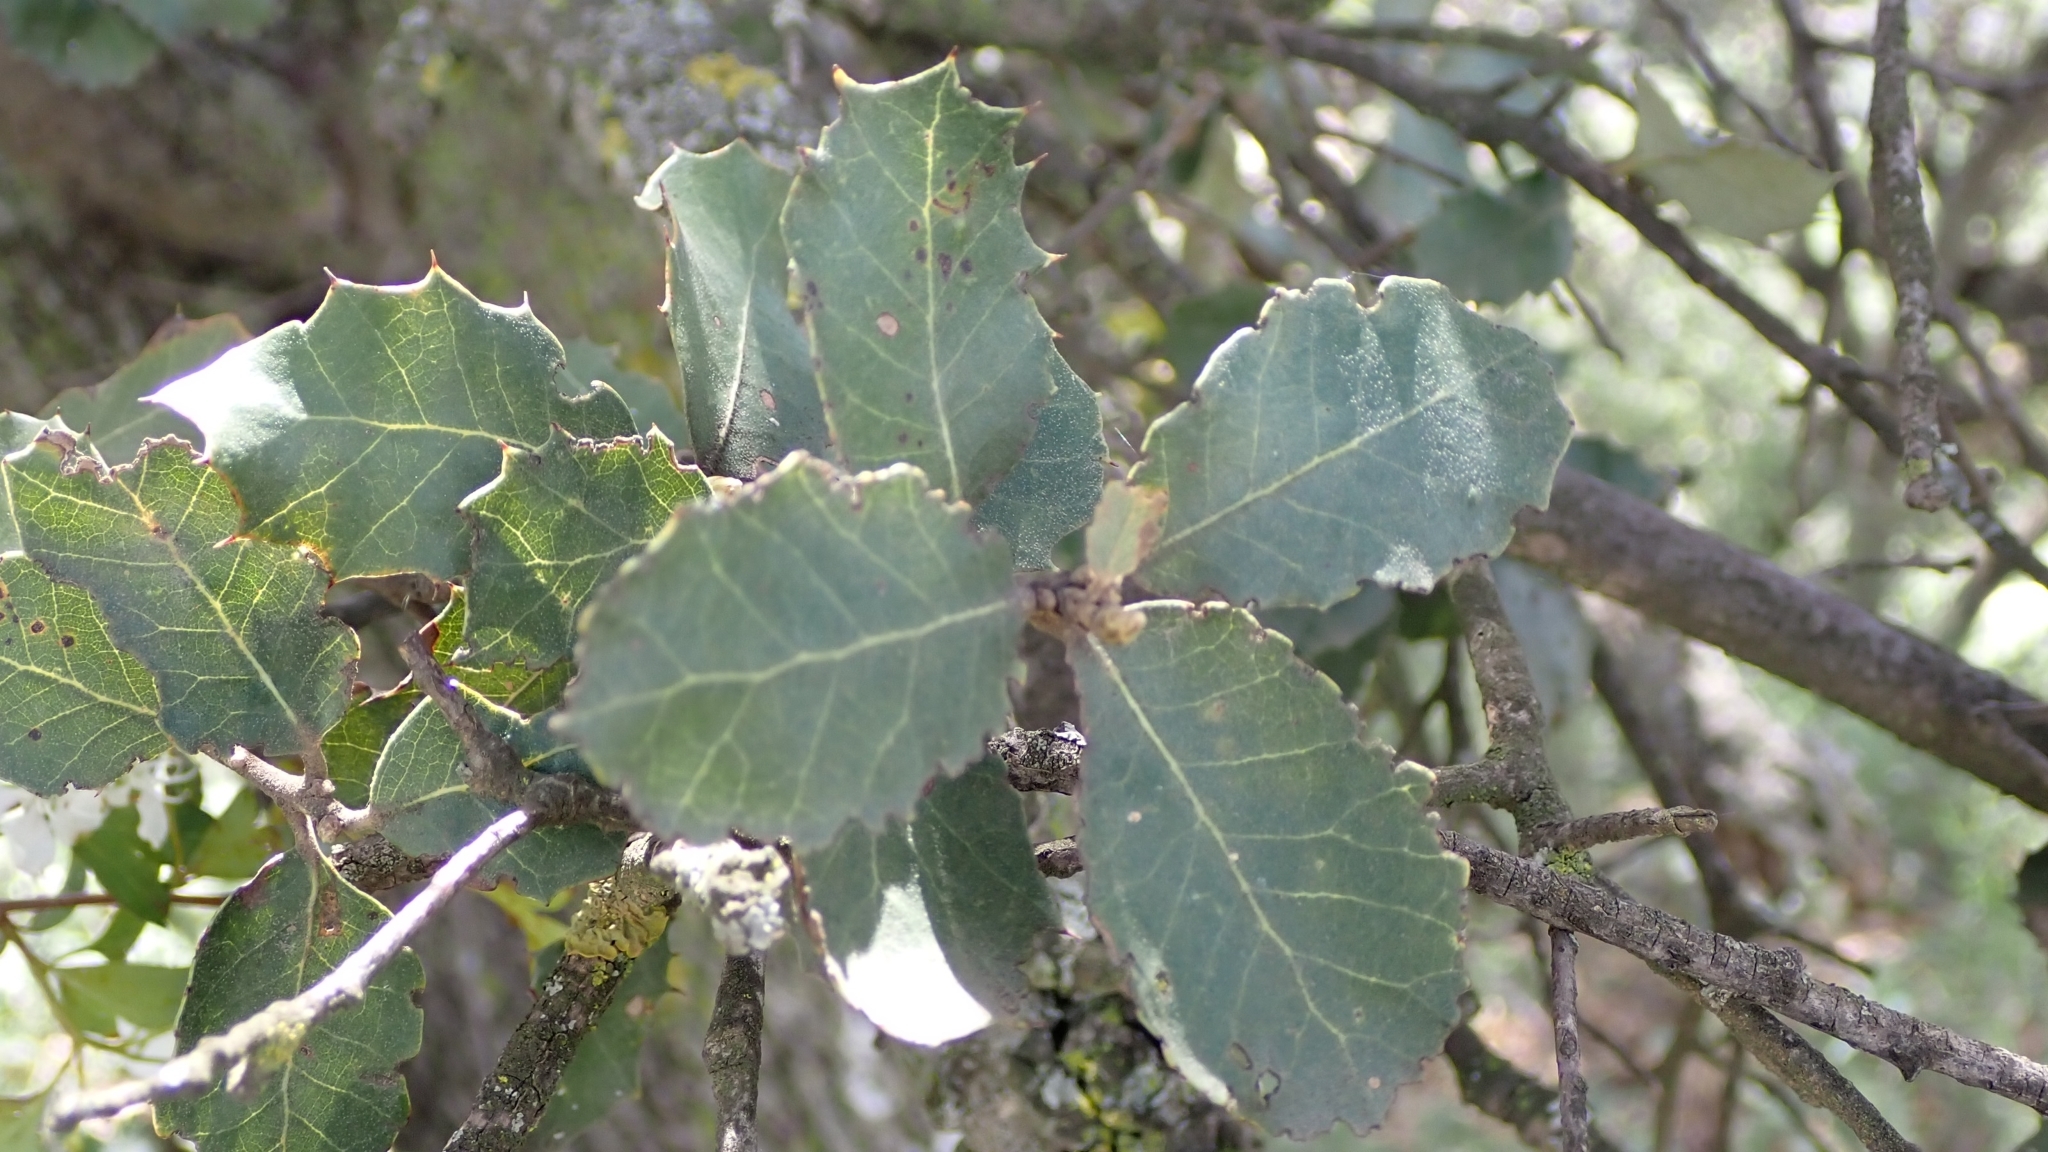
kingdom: Plantae
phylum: Tracheophyta
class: Magnoliopsida
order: Fagales
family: Fagaceae
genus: Quercus
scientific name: Quercus rotundifolia
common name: Holm oak
